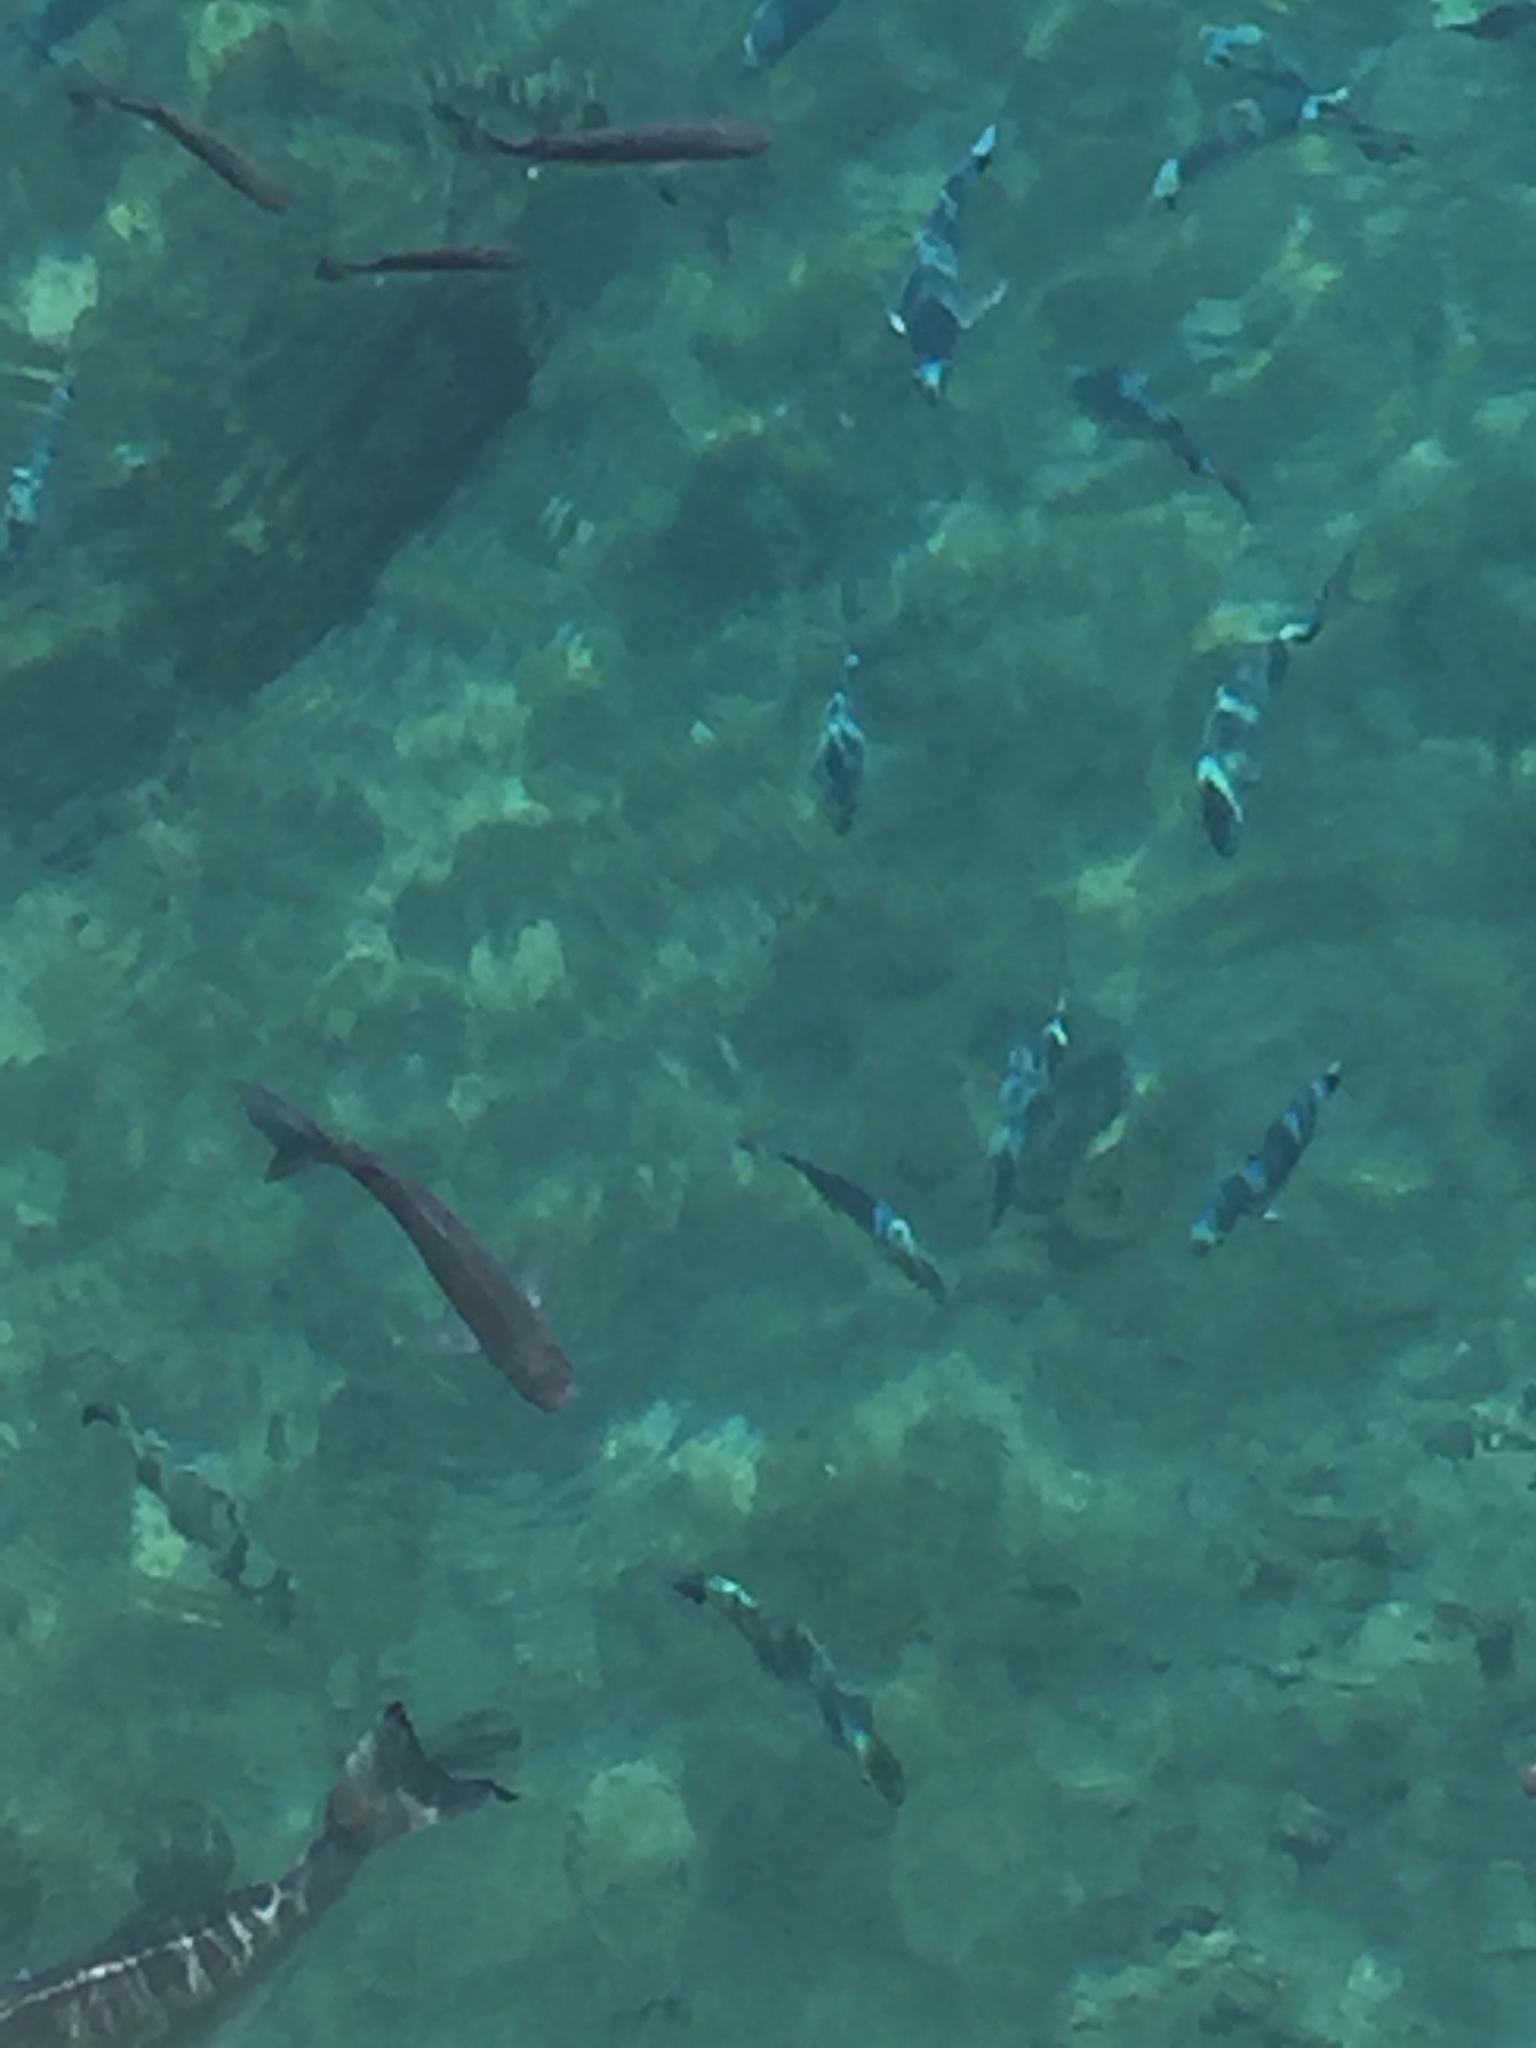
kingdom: Animalia
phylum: Chordata
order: Perciformes
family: Sparidae
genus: Sparus
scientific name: Sparus aurata
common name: Gilthead
